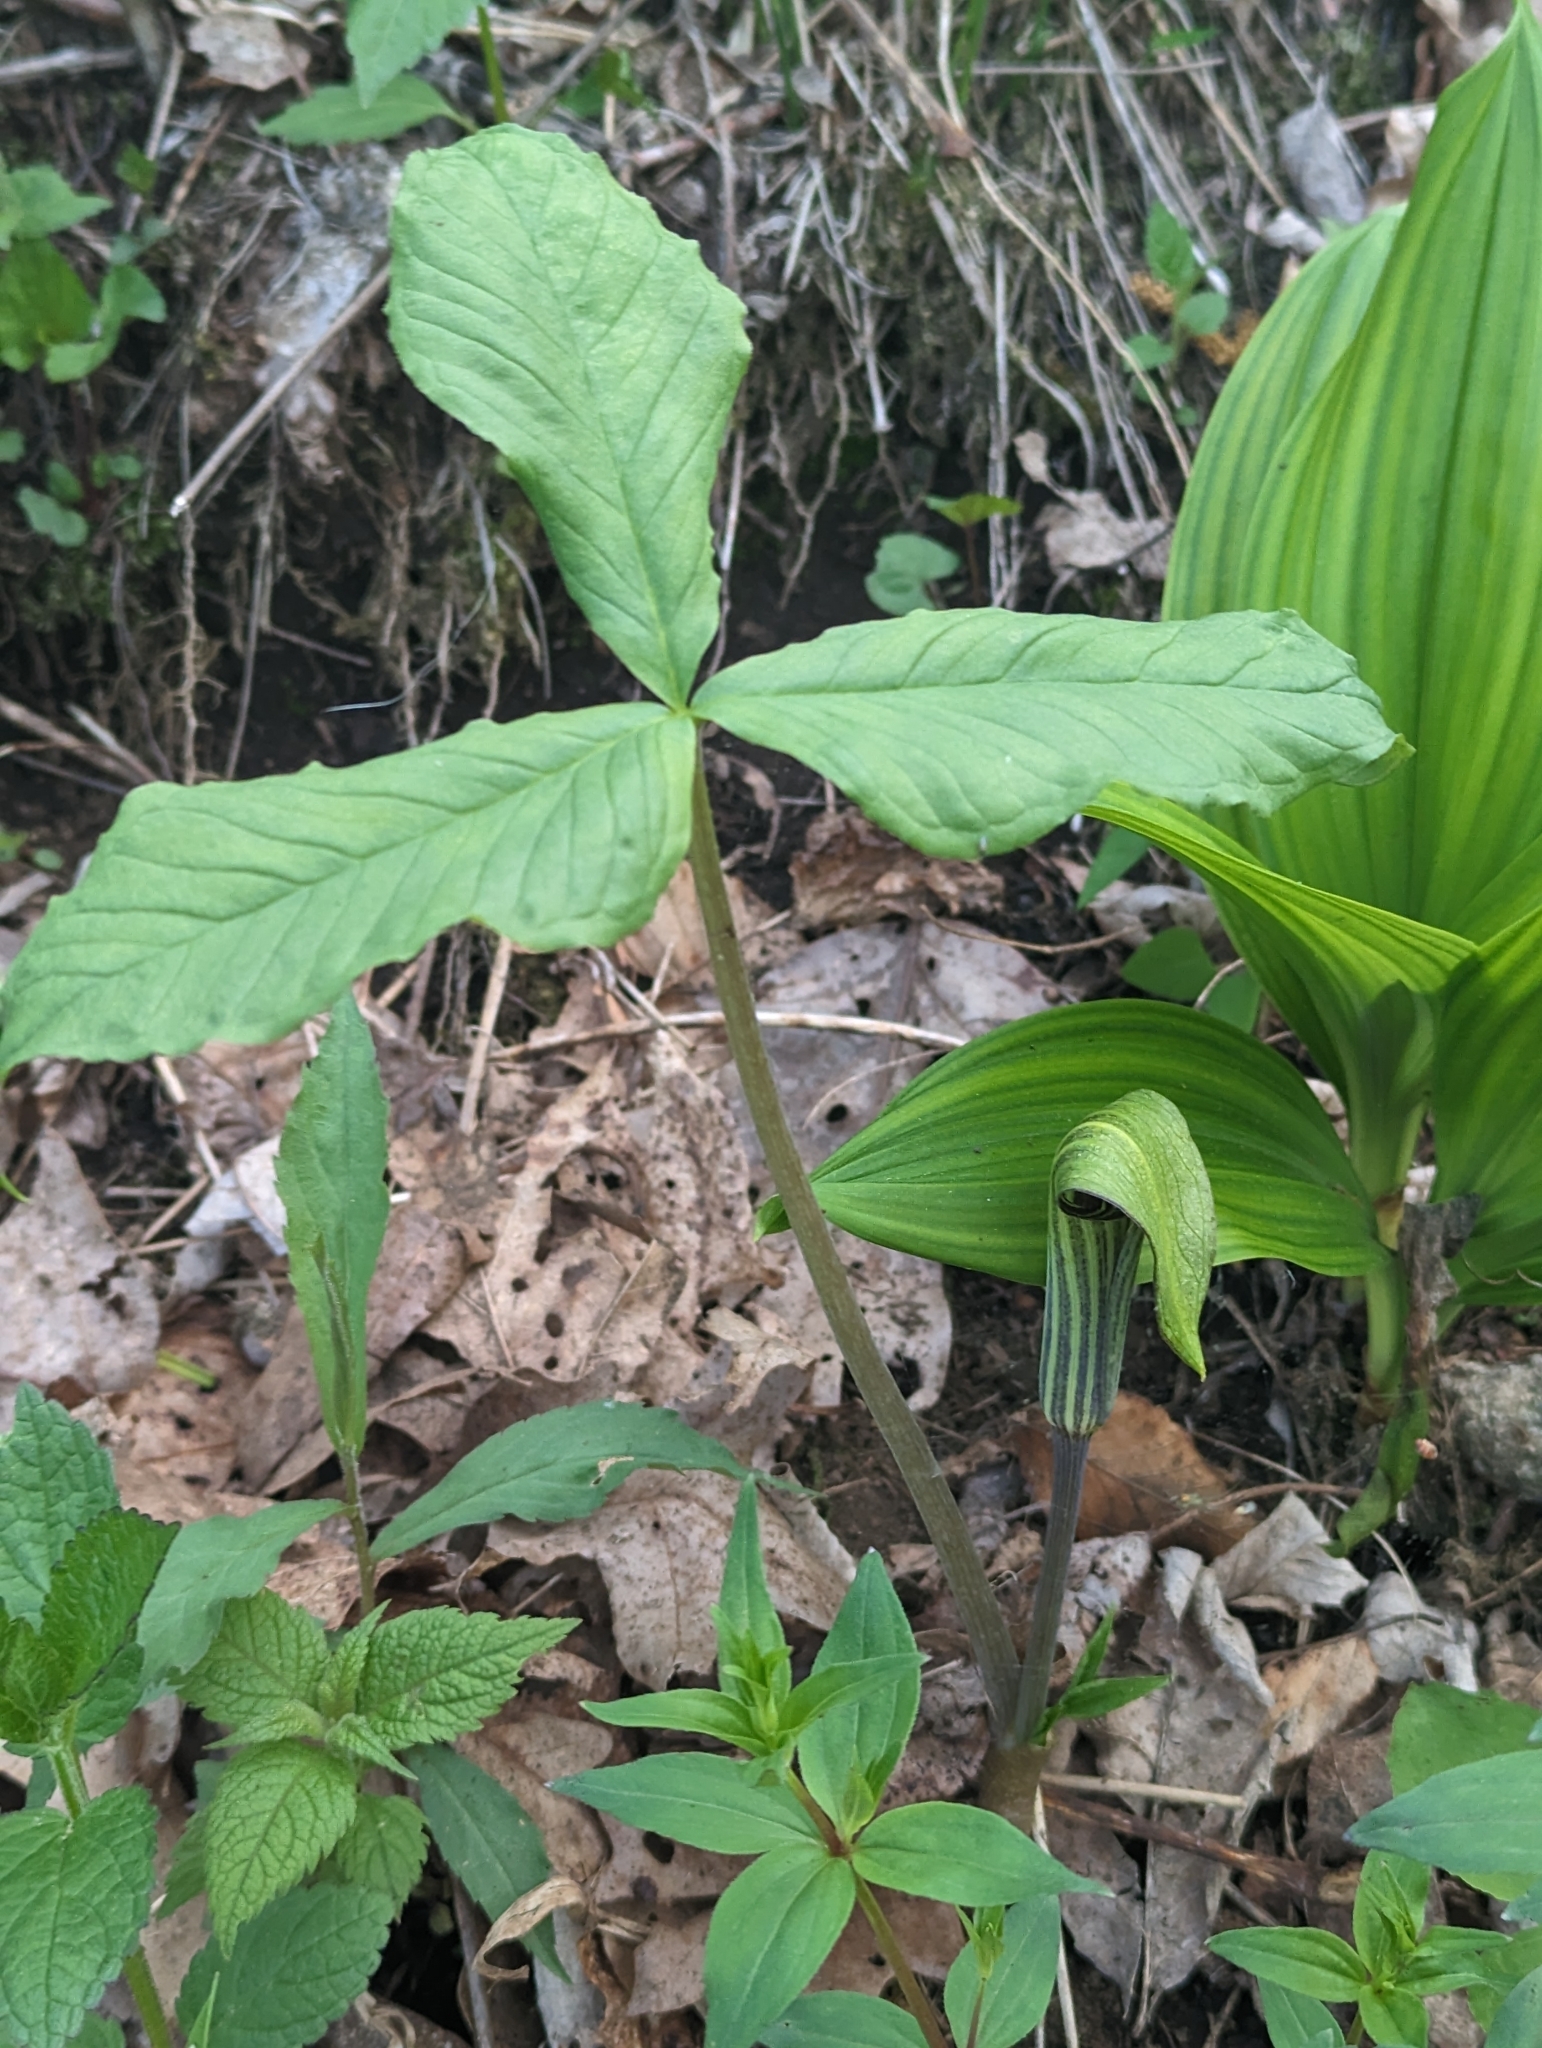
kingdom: Plantae
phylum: Tracheophyta
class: Liliopsida
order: Alismatales
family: Araceae
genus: Arisaema
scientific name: Arisaema triphyllum
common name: Jack-in-the-pulpit
